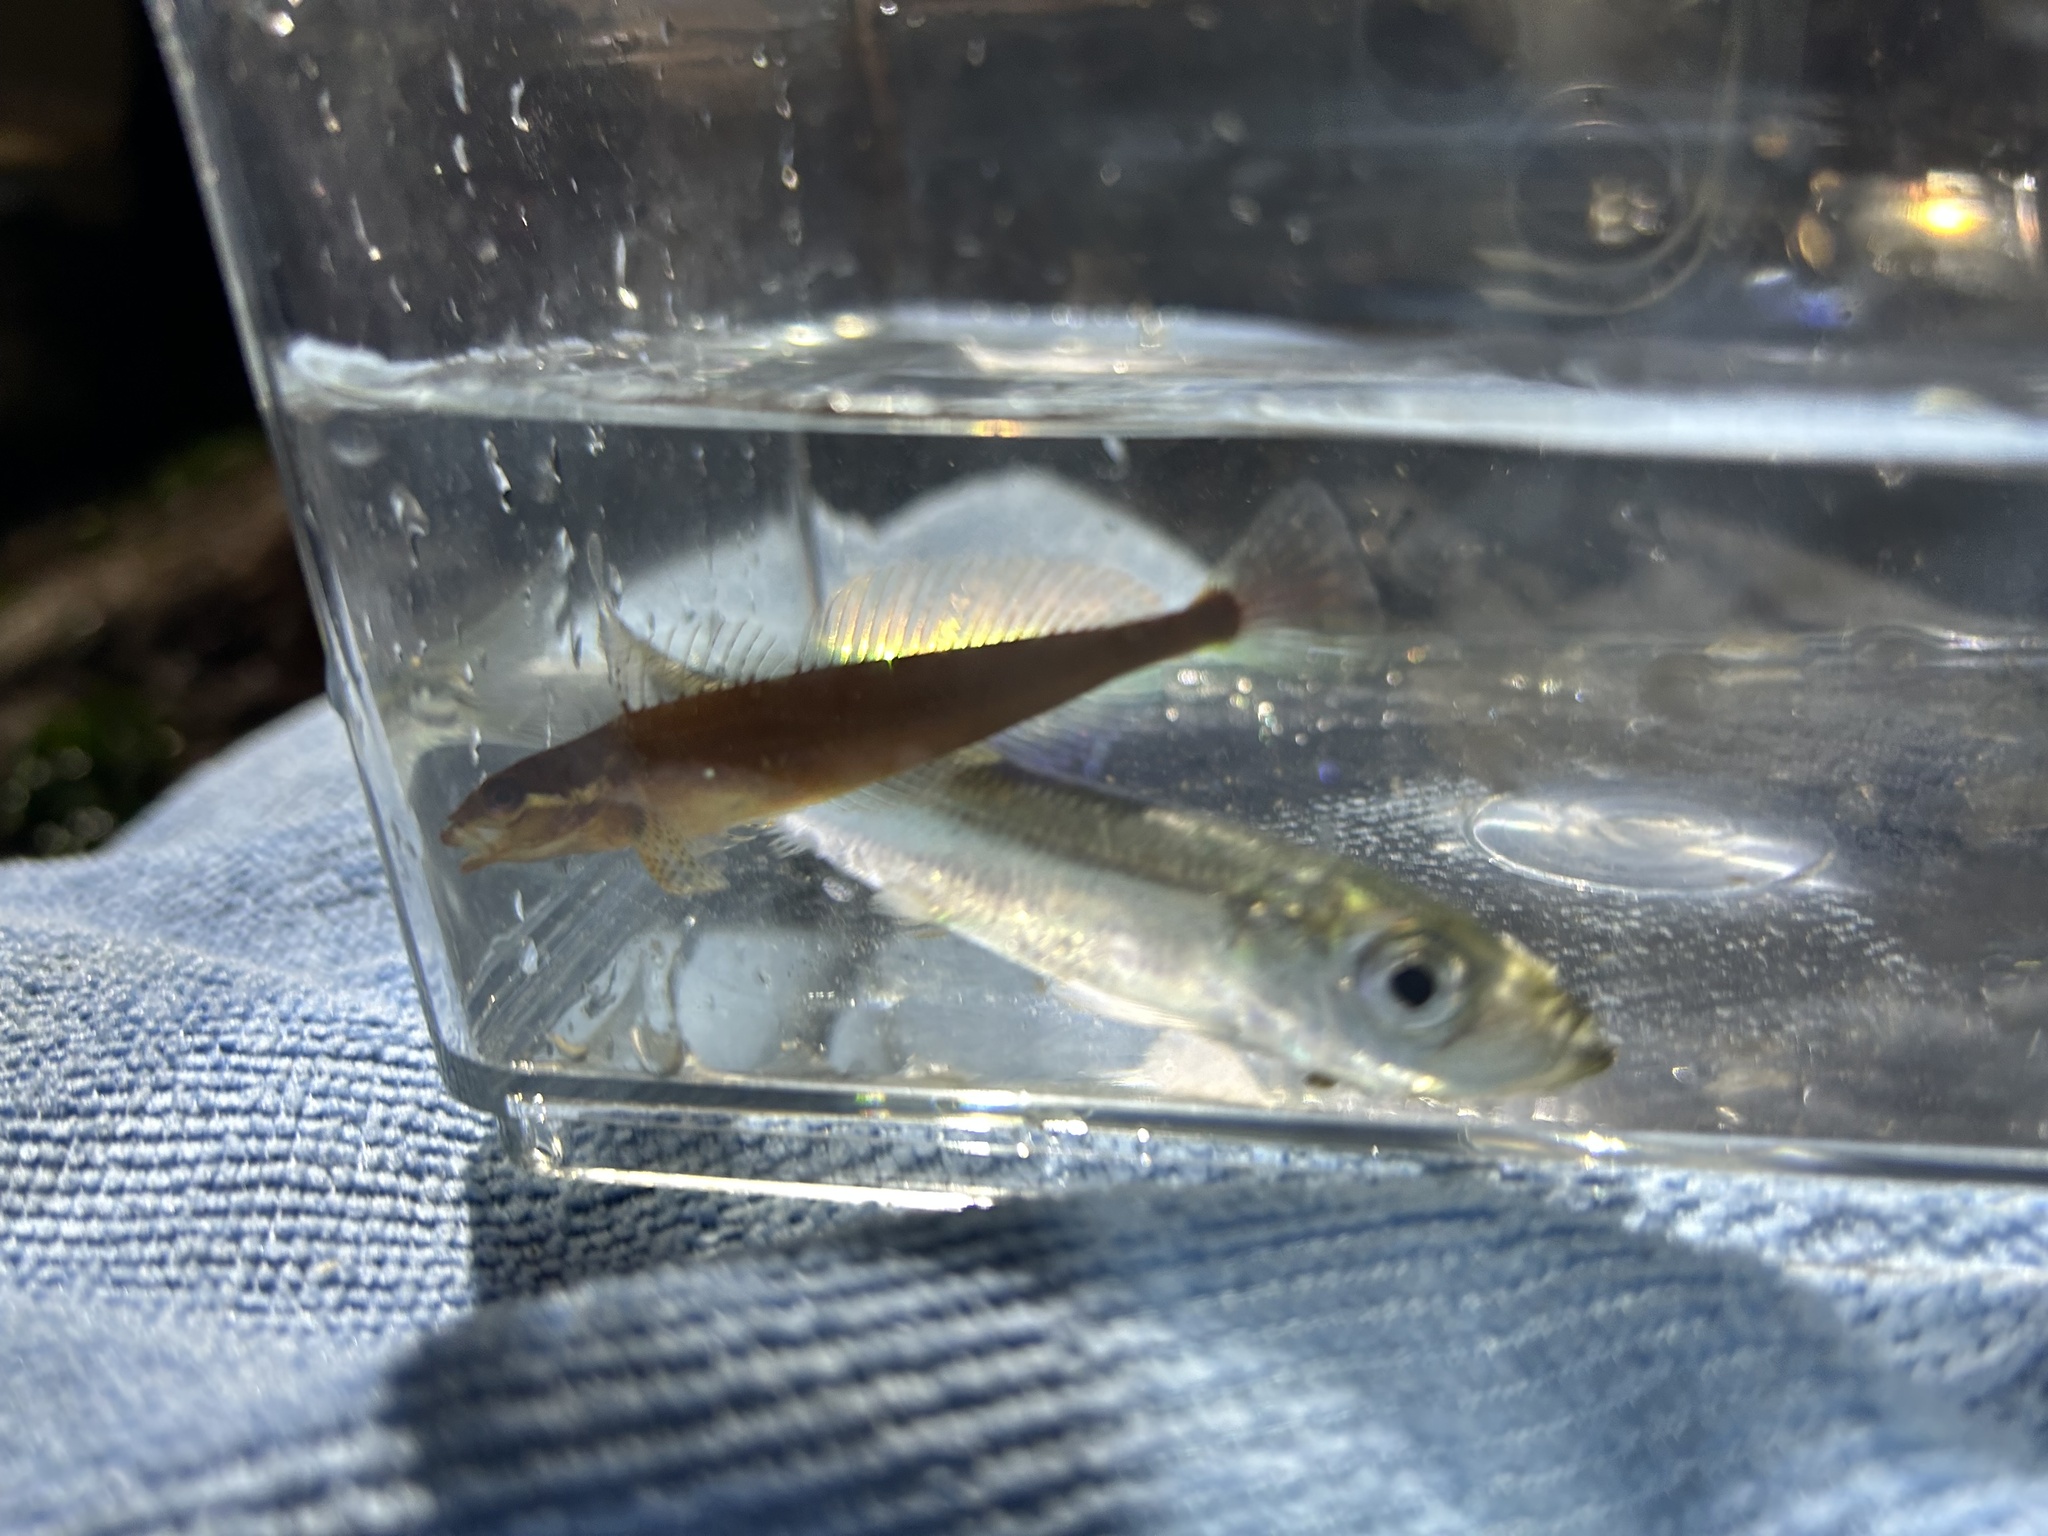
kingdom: Animalia
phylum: Chordata
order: Clupeiformes
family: Clupeidae
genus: Clupea
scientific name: Clupea pallasii
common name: Pacific herring
